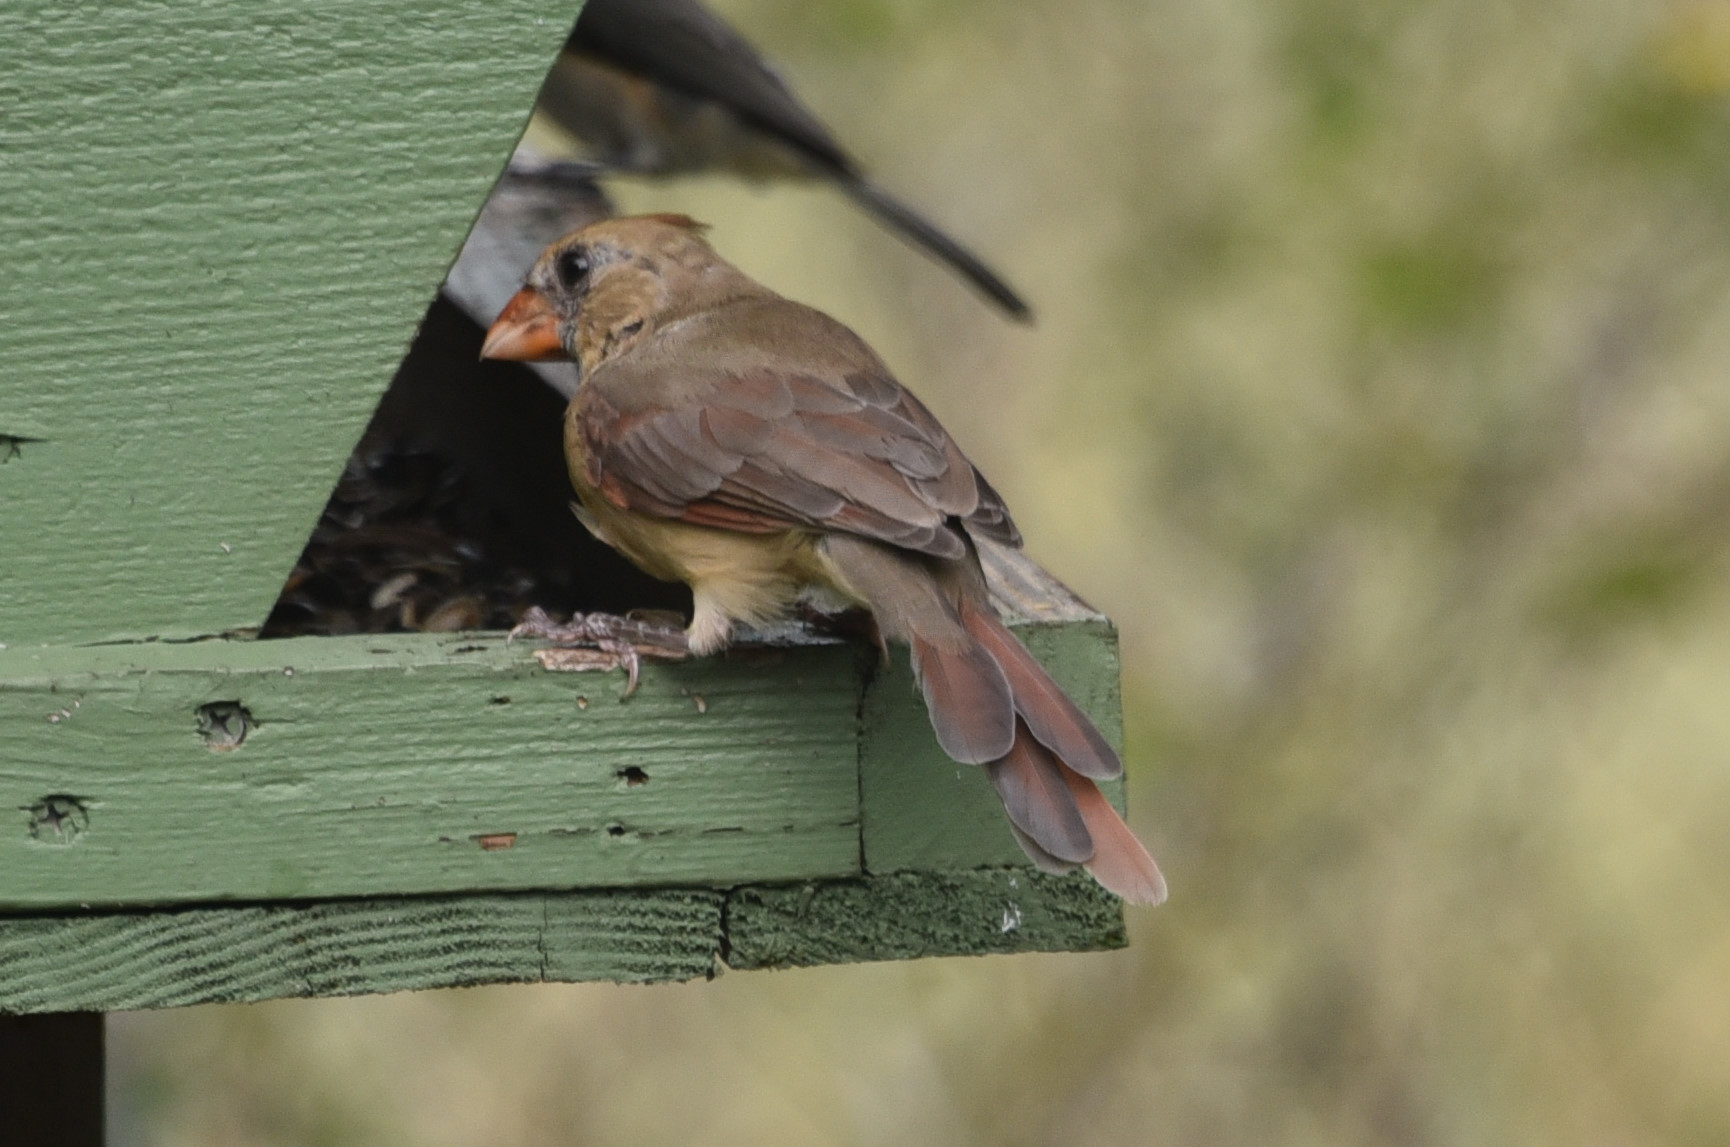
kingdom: Animalia
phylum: Chordata
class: Aves
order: Passeriformes
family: Cardinalidae
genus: Cardinalis
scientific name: Cardinalis cardinalis
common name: Northern cardinal
